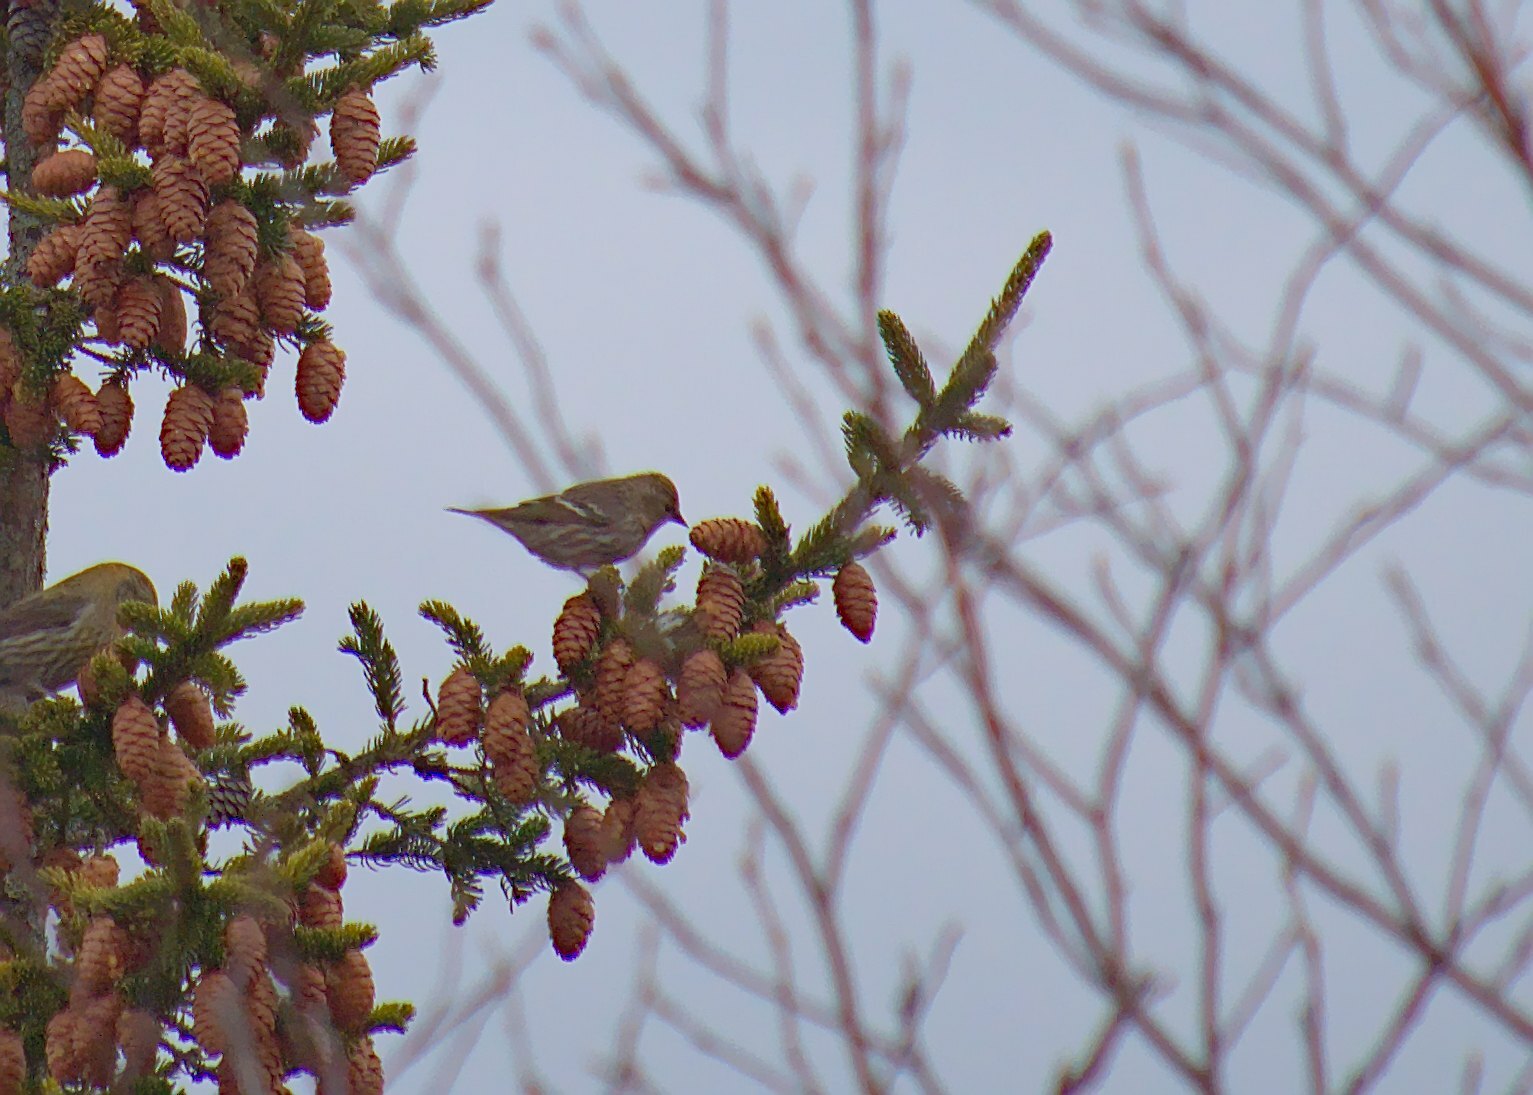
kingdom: Animalia
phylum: Chordata
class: Aves
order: Passeriformes
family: Fringillidae
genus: Spinus
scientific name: Spinus pinus
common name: Pine siskin
